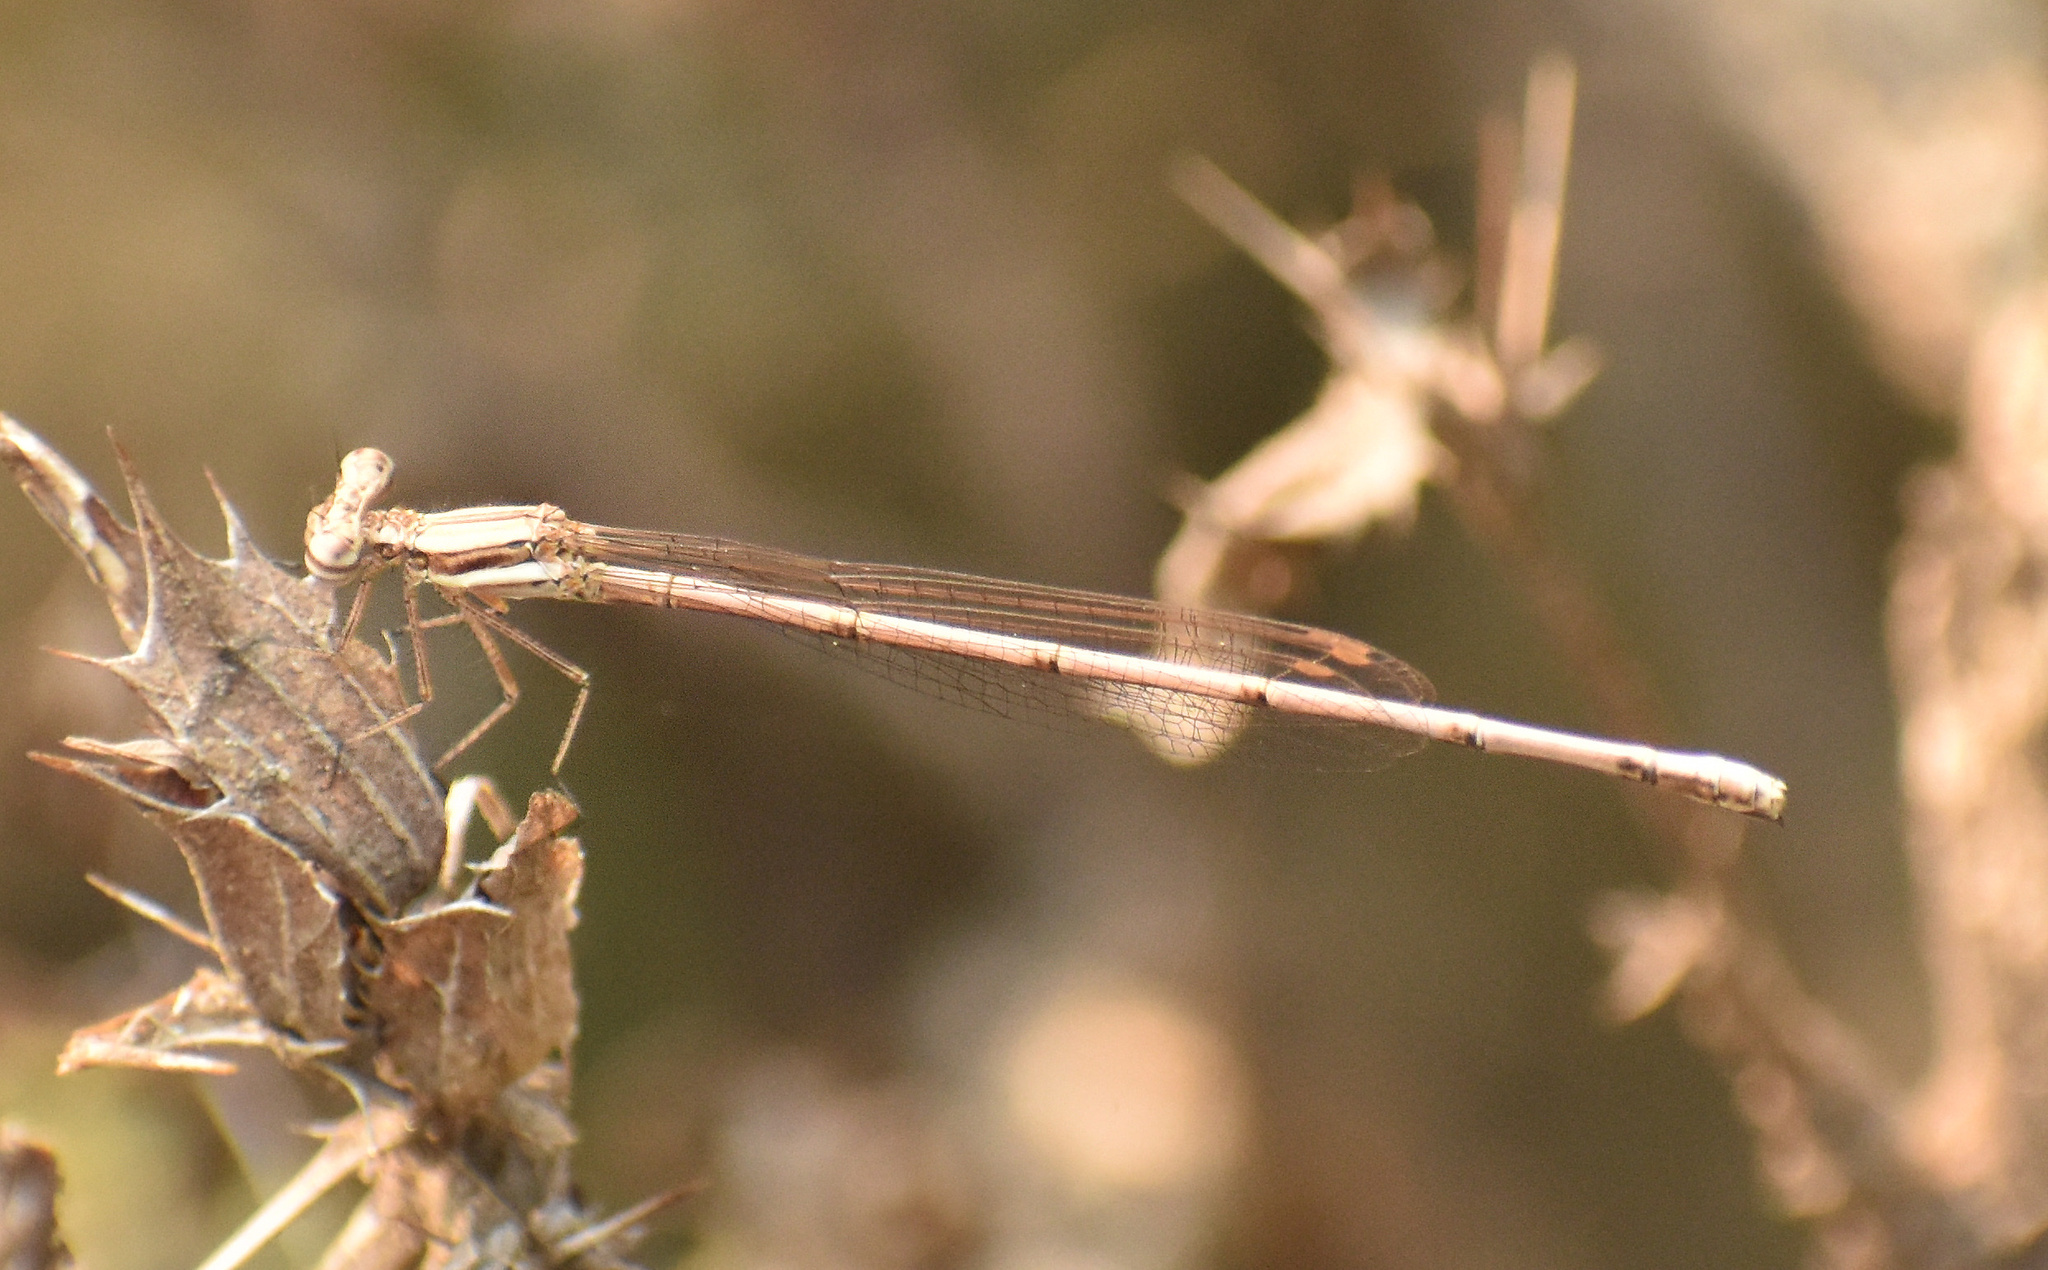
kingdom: Animalia
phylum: Arthropoda
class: Insecta
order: Odonata
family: Platycnemididae
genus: Elattoneura
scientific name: Elattoneura glauca
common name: Common threadtail
